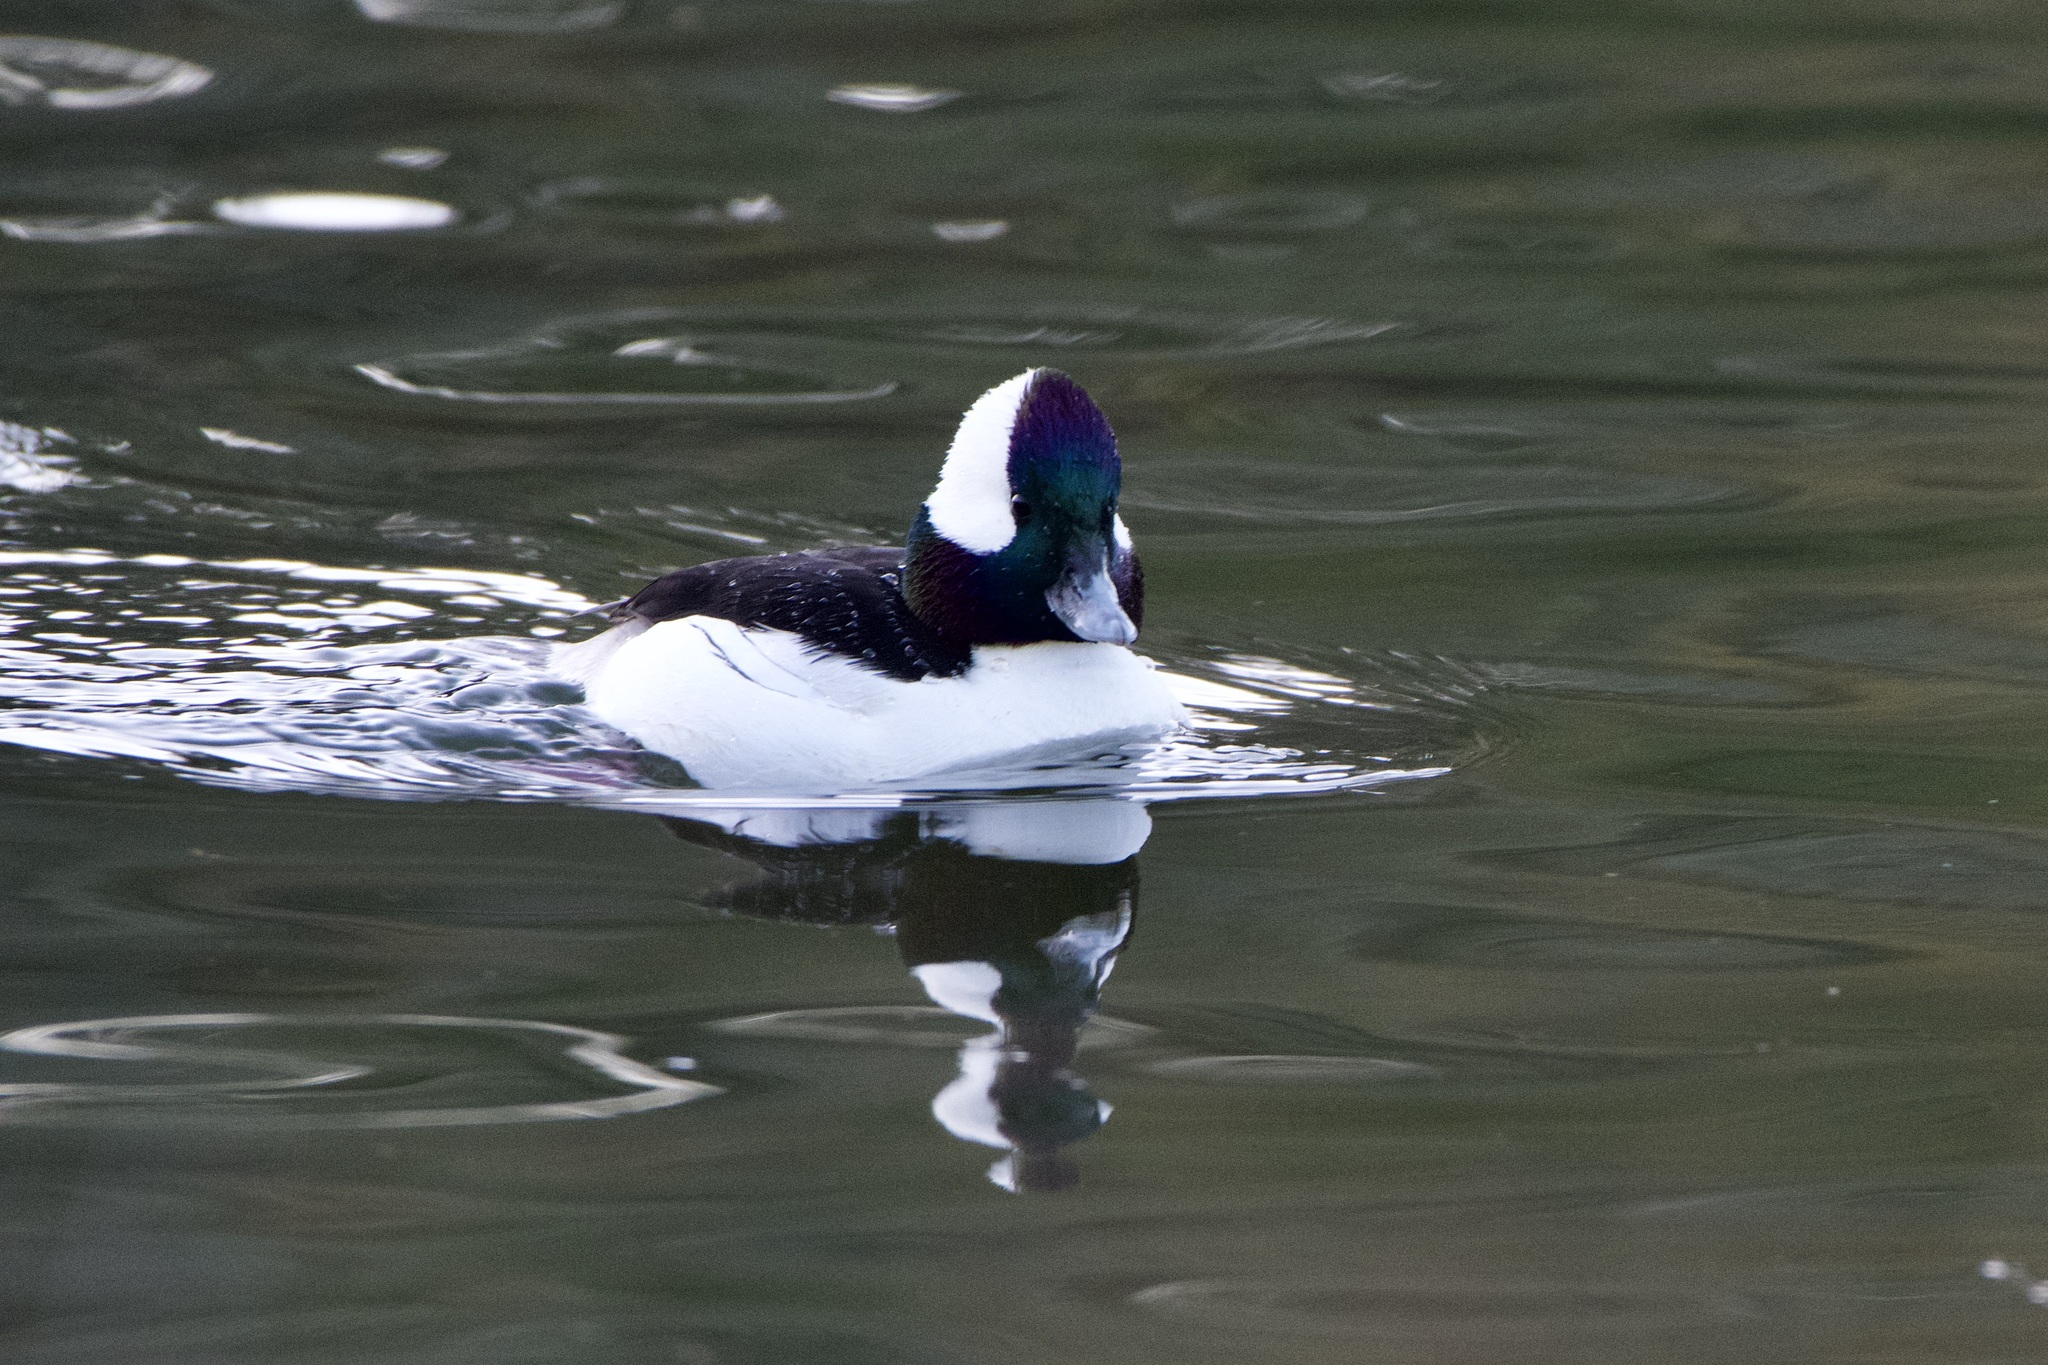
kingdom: Animalia
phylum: Chordata
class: Aves
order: Anseriformes
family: Anatidae
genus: Bucephala
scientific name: Bucephala albeola
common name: Bufflehead
